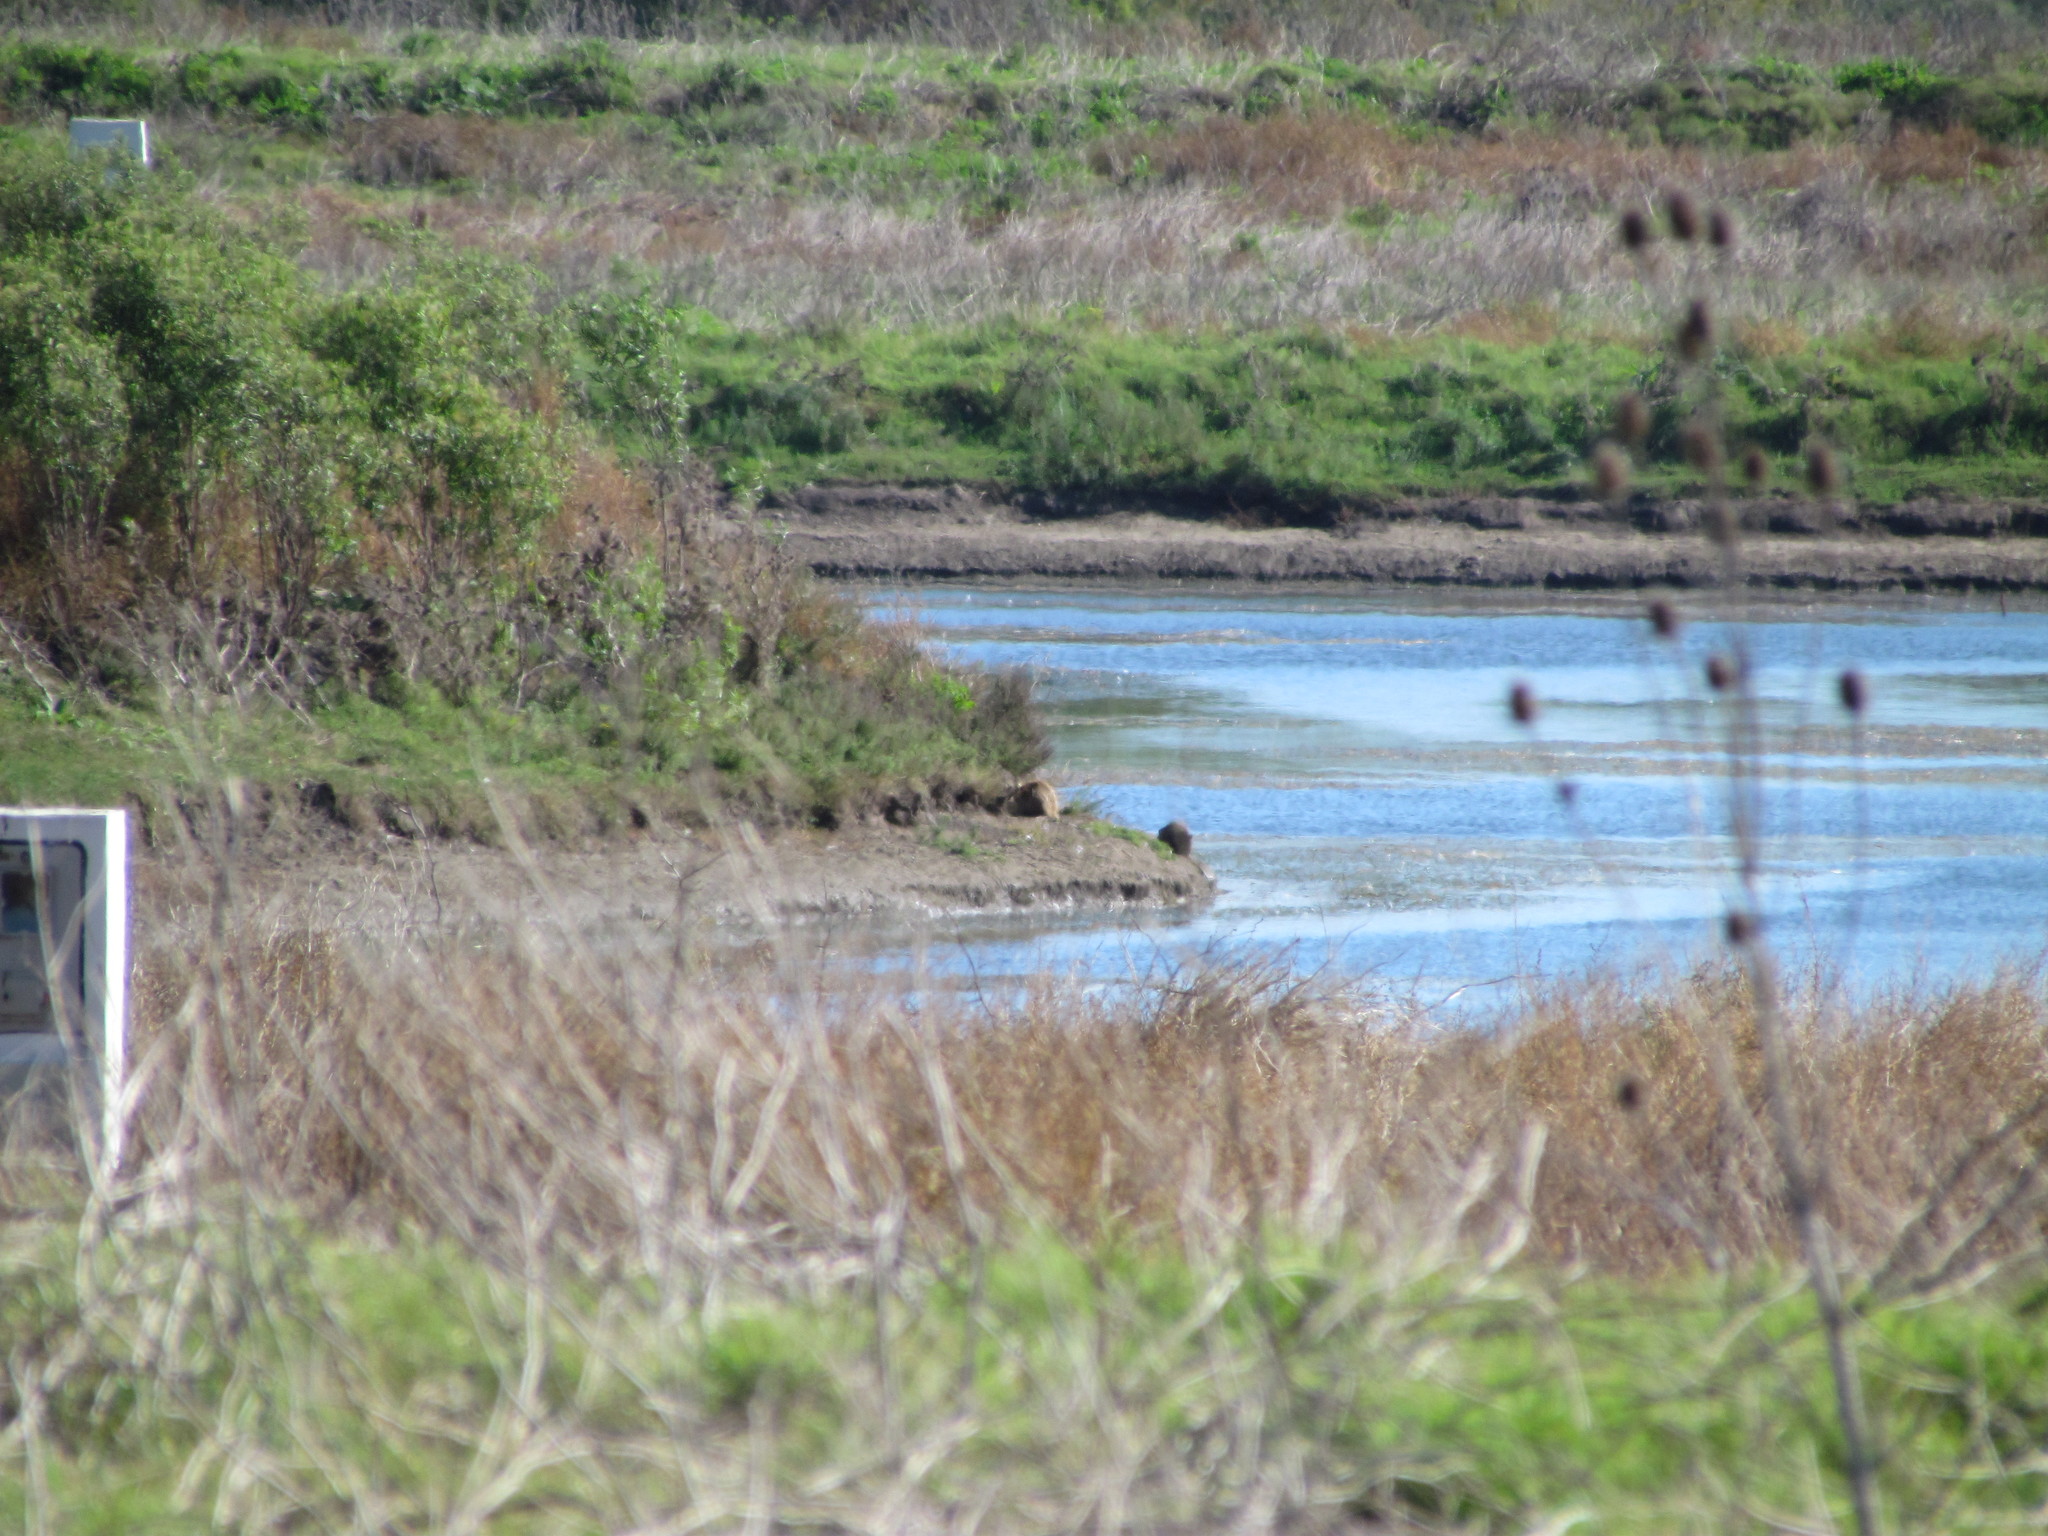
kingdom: Animalia
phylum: Chordata
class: Mammalia
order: Rodentia
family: Caviidae
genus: Hydrochoerus
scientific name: Hydrochoerus hydrochaeris
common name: Capybara
